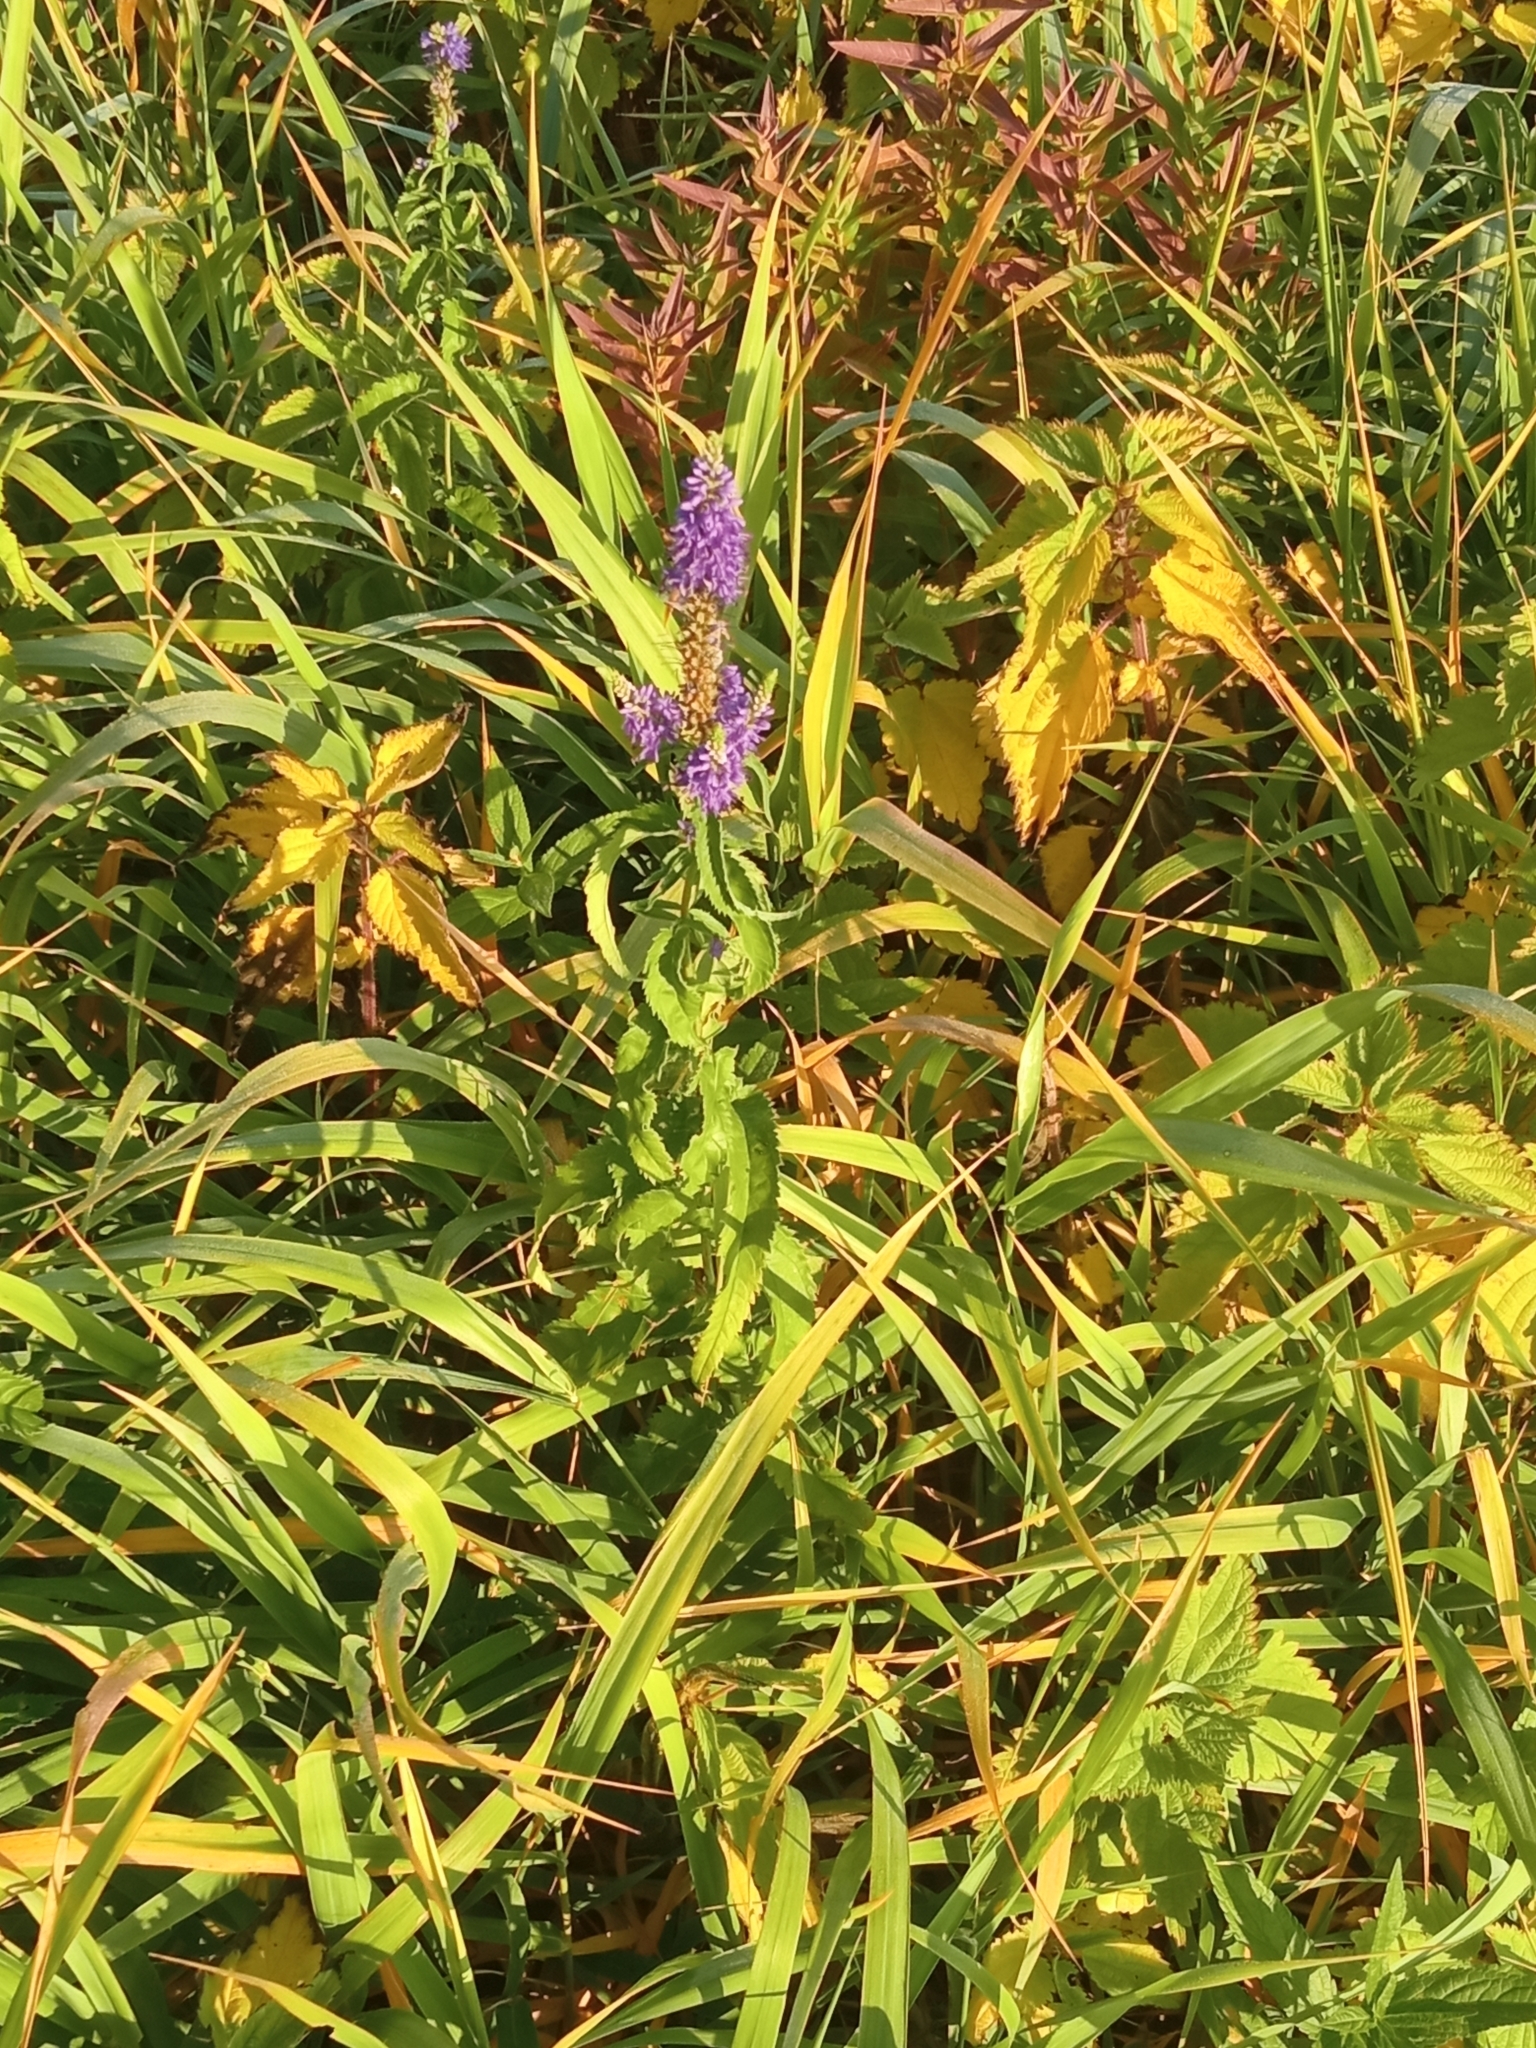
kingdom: Plantae
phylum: Tracheophyta
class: Magnoliopsida
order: Lamiales
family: Plantaginaceae
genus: Veronica
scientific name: Veronica longifolia
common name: Garden speedwell
